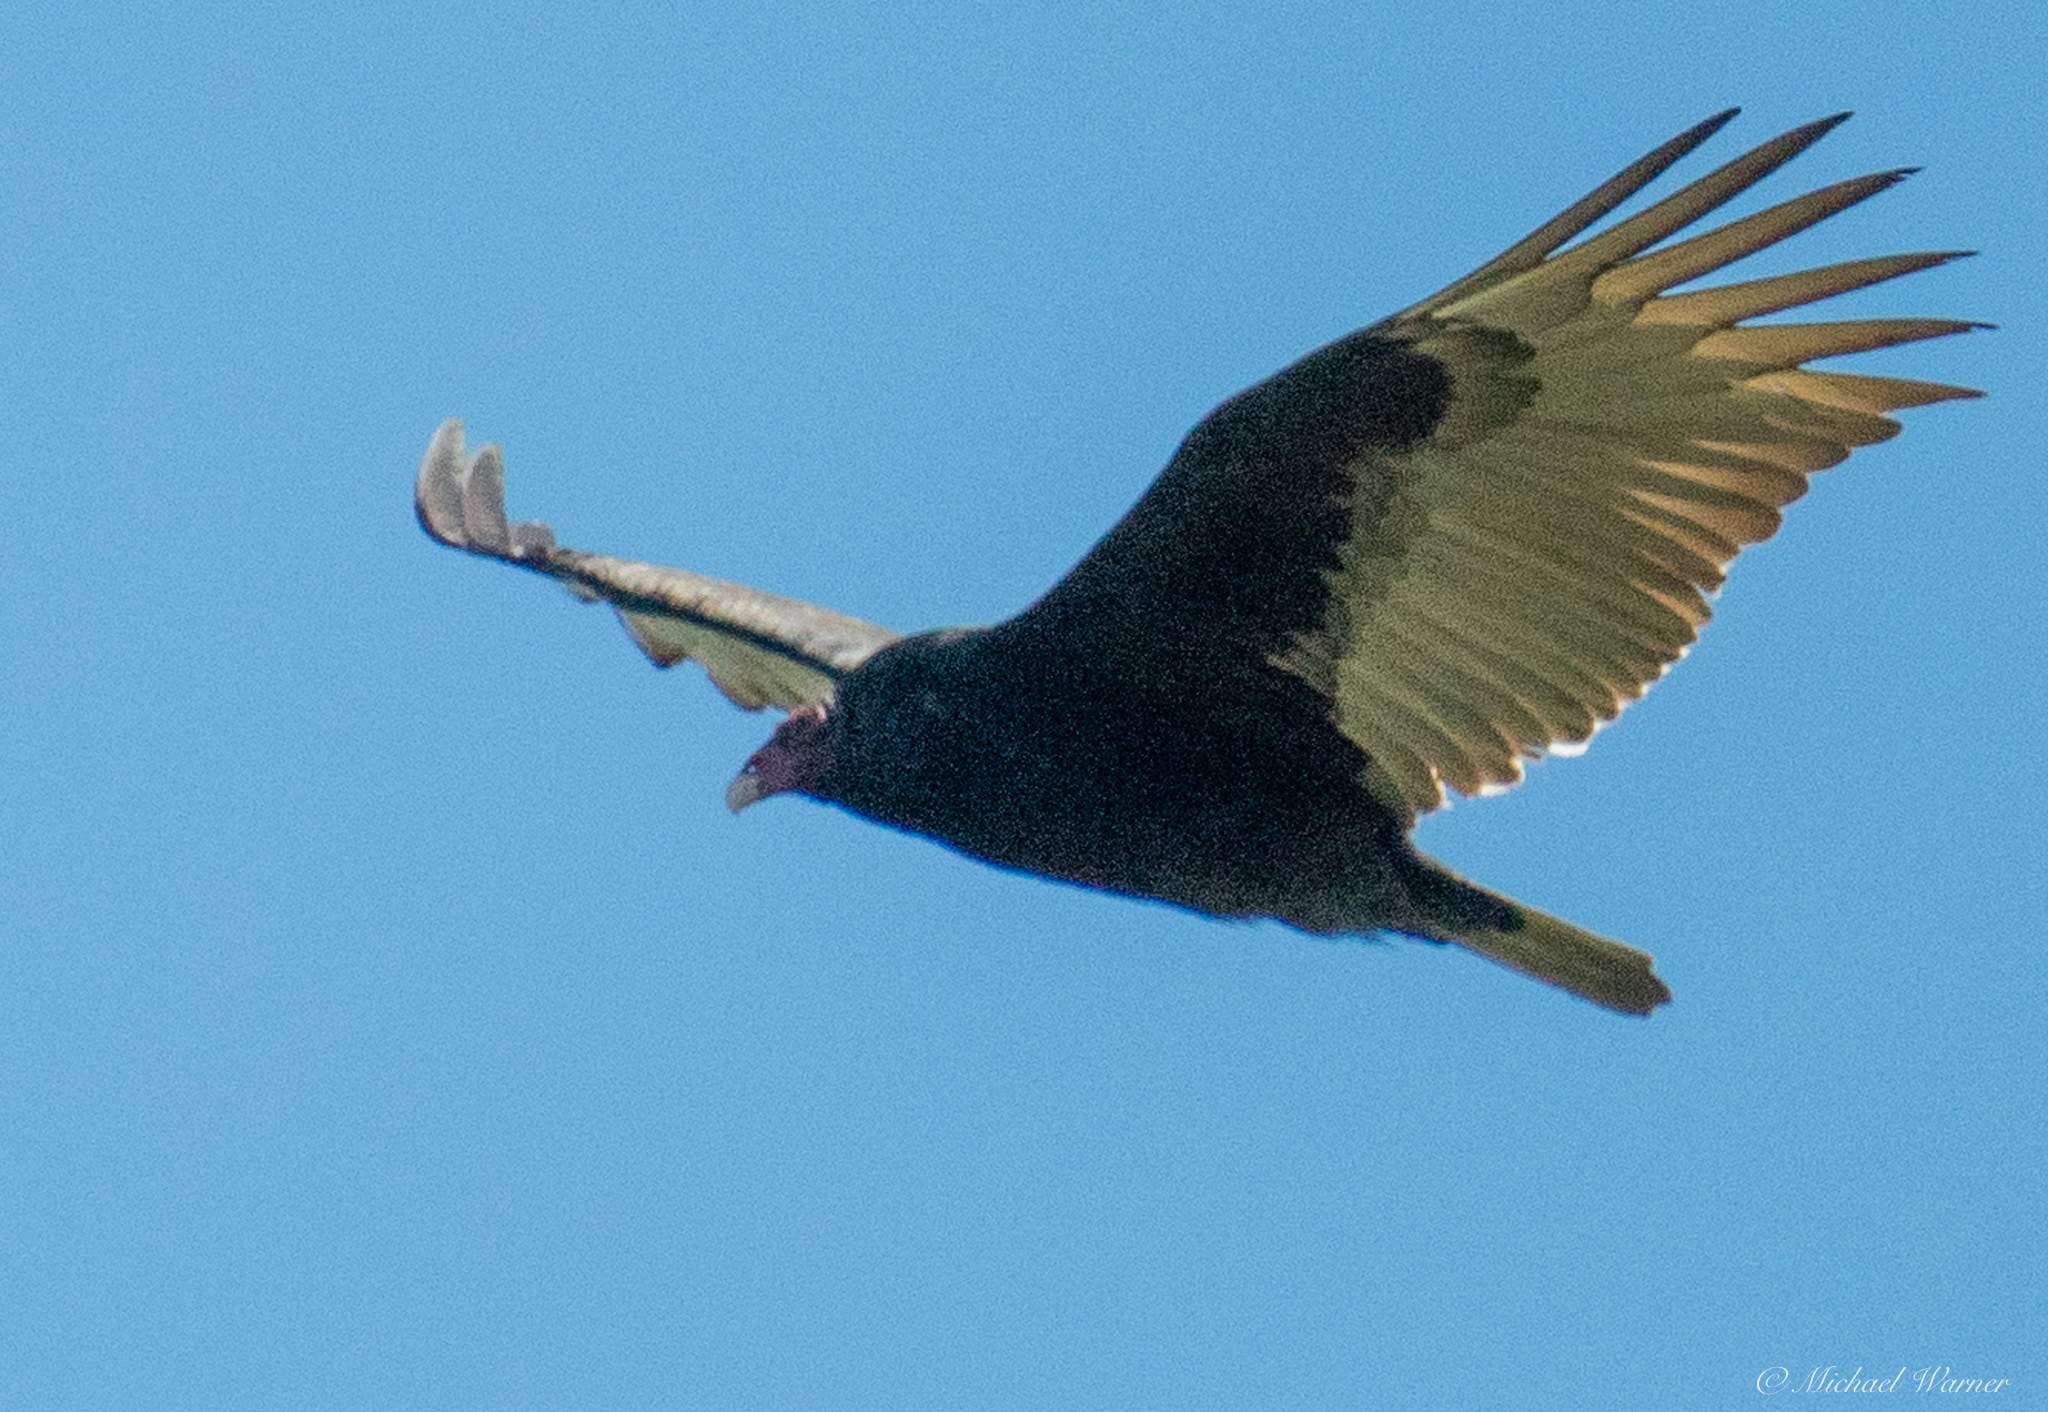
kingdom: Animalia
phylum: Chordata
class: Aves
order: Accipitriformes
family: Cathartidae
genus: Cathartes
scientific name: Cathartes aura
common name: Turkey vulture
